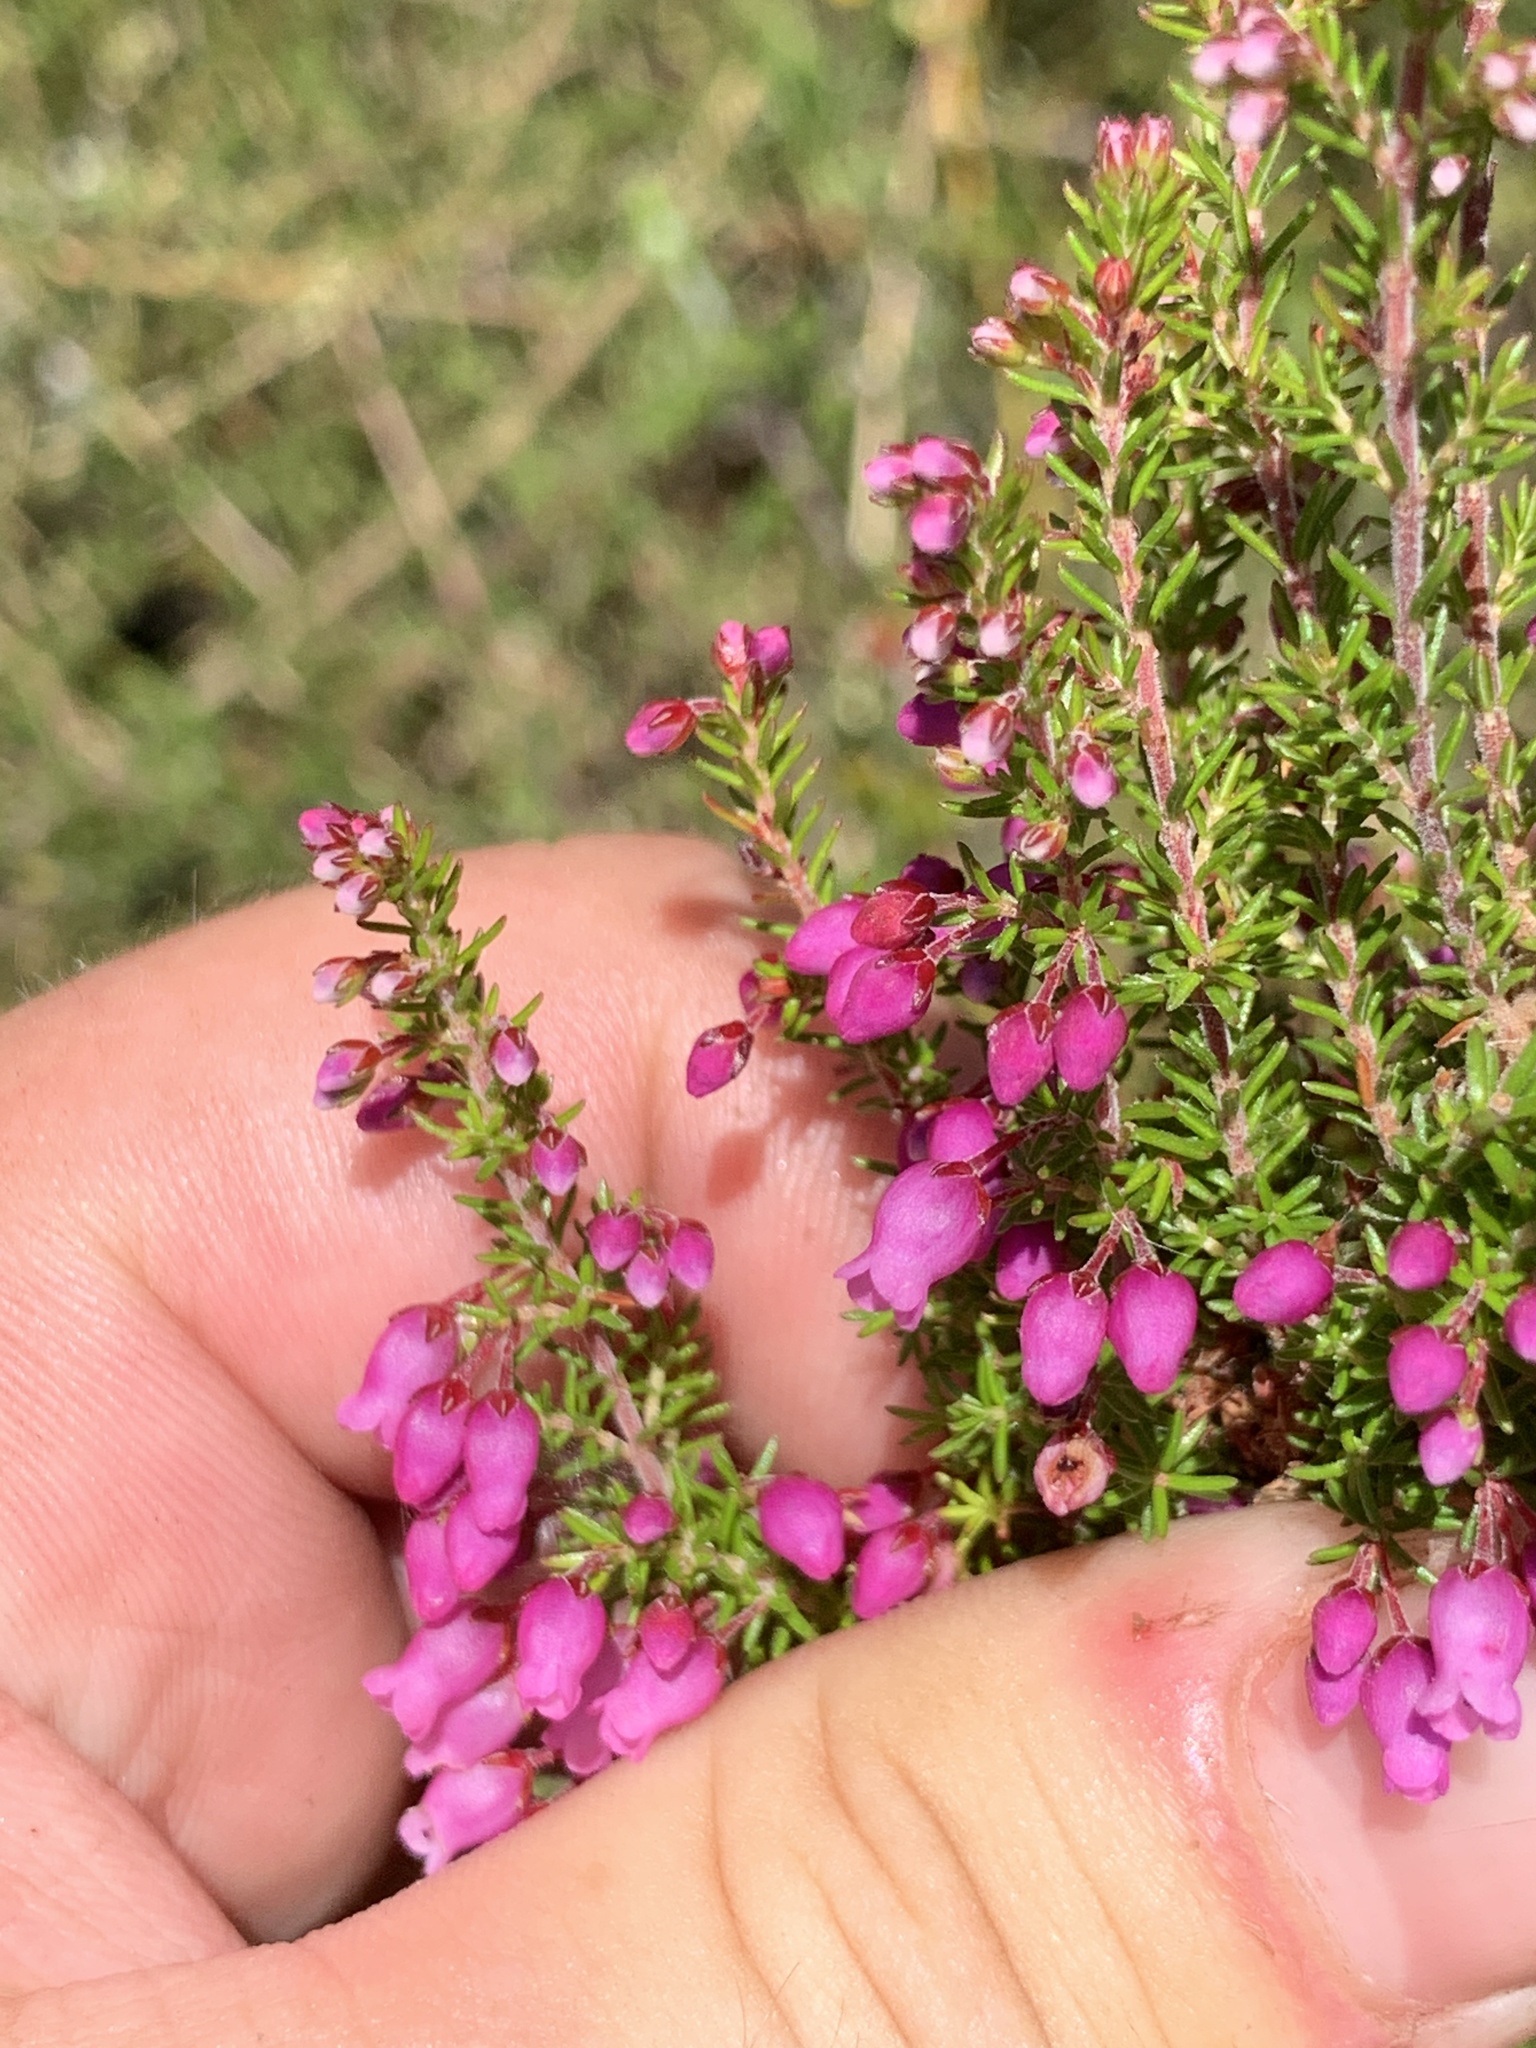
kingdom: Plantae
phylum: Tracheophyta
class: Magnoliopsida
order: Ericales
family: Ericaceae
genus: Erica
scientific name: Erica tenella
